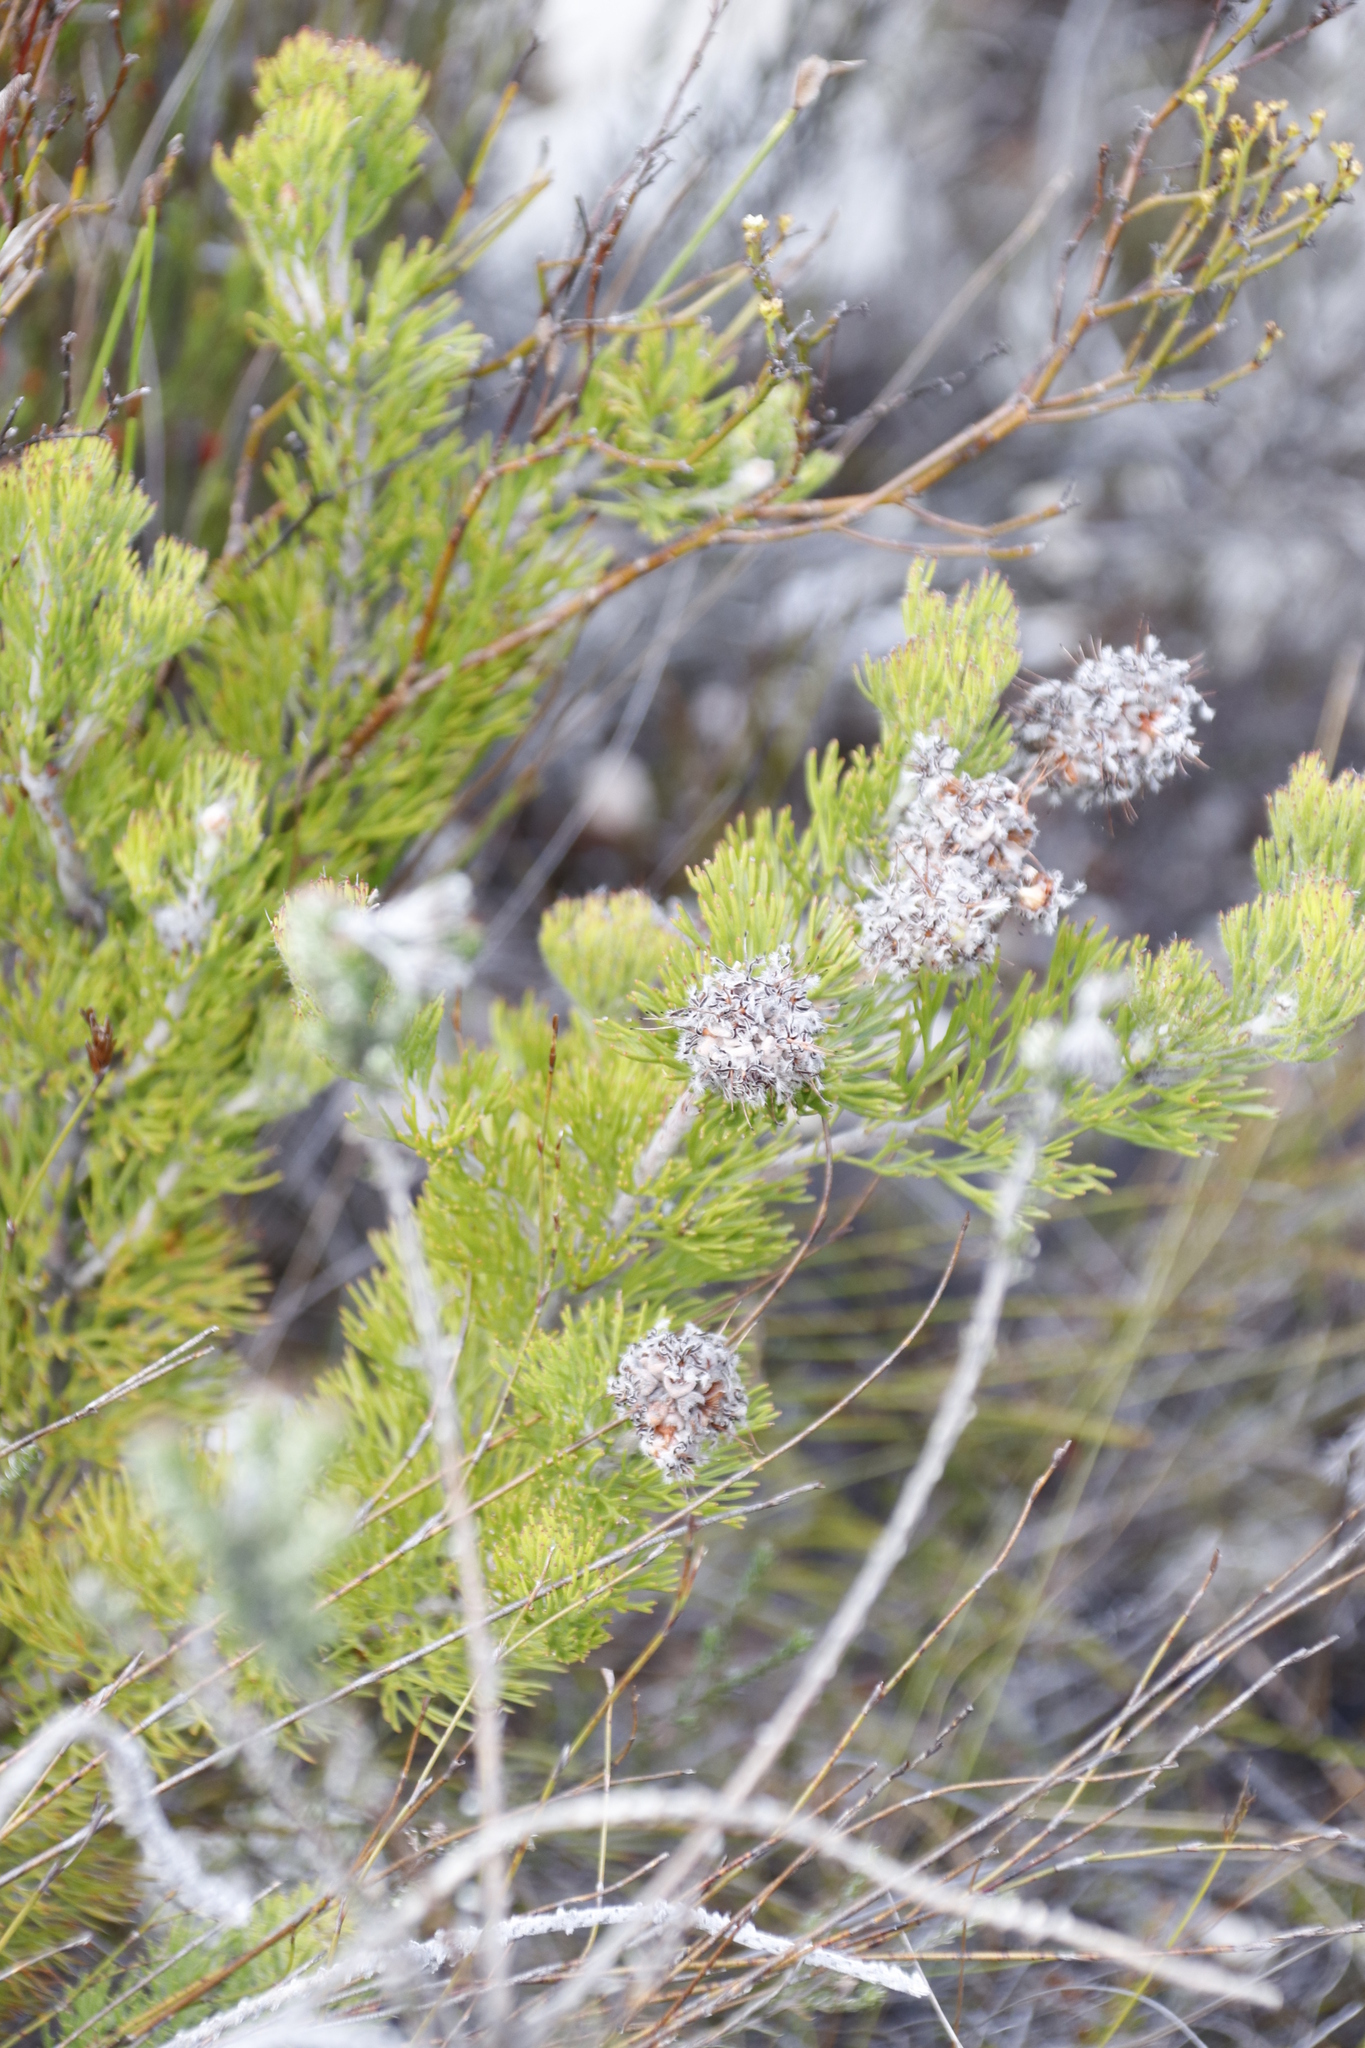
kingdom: Plantae
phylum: Tracheophyta
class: Magnoliopsida
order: Proteales
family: Proteaceae
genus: Paranomus
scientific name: Paranomus abrotanifolius
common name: Bredasdorp sceptre
